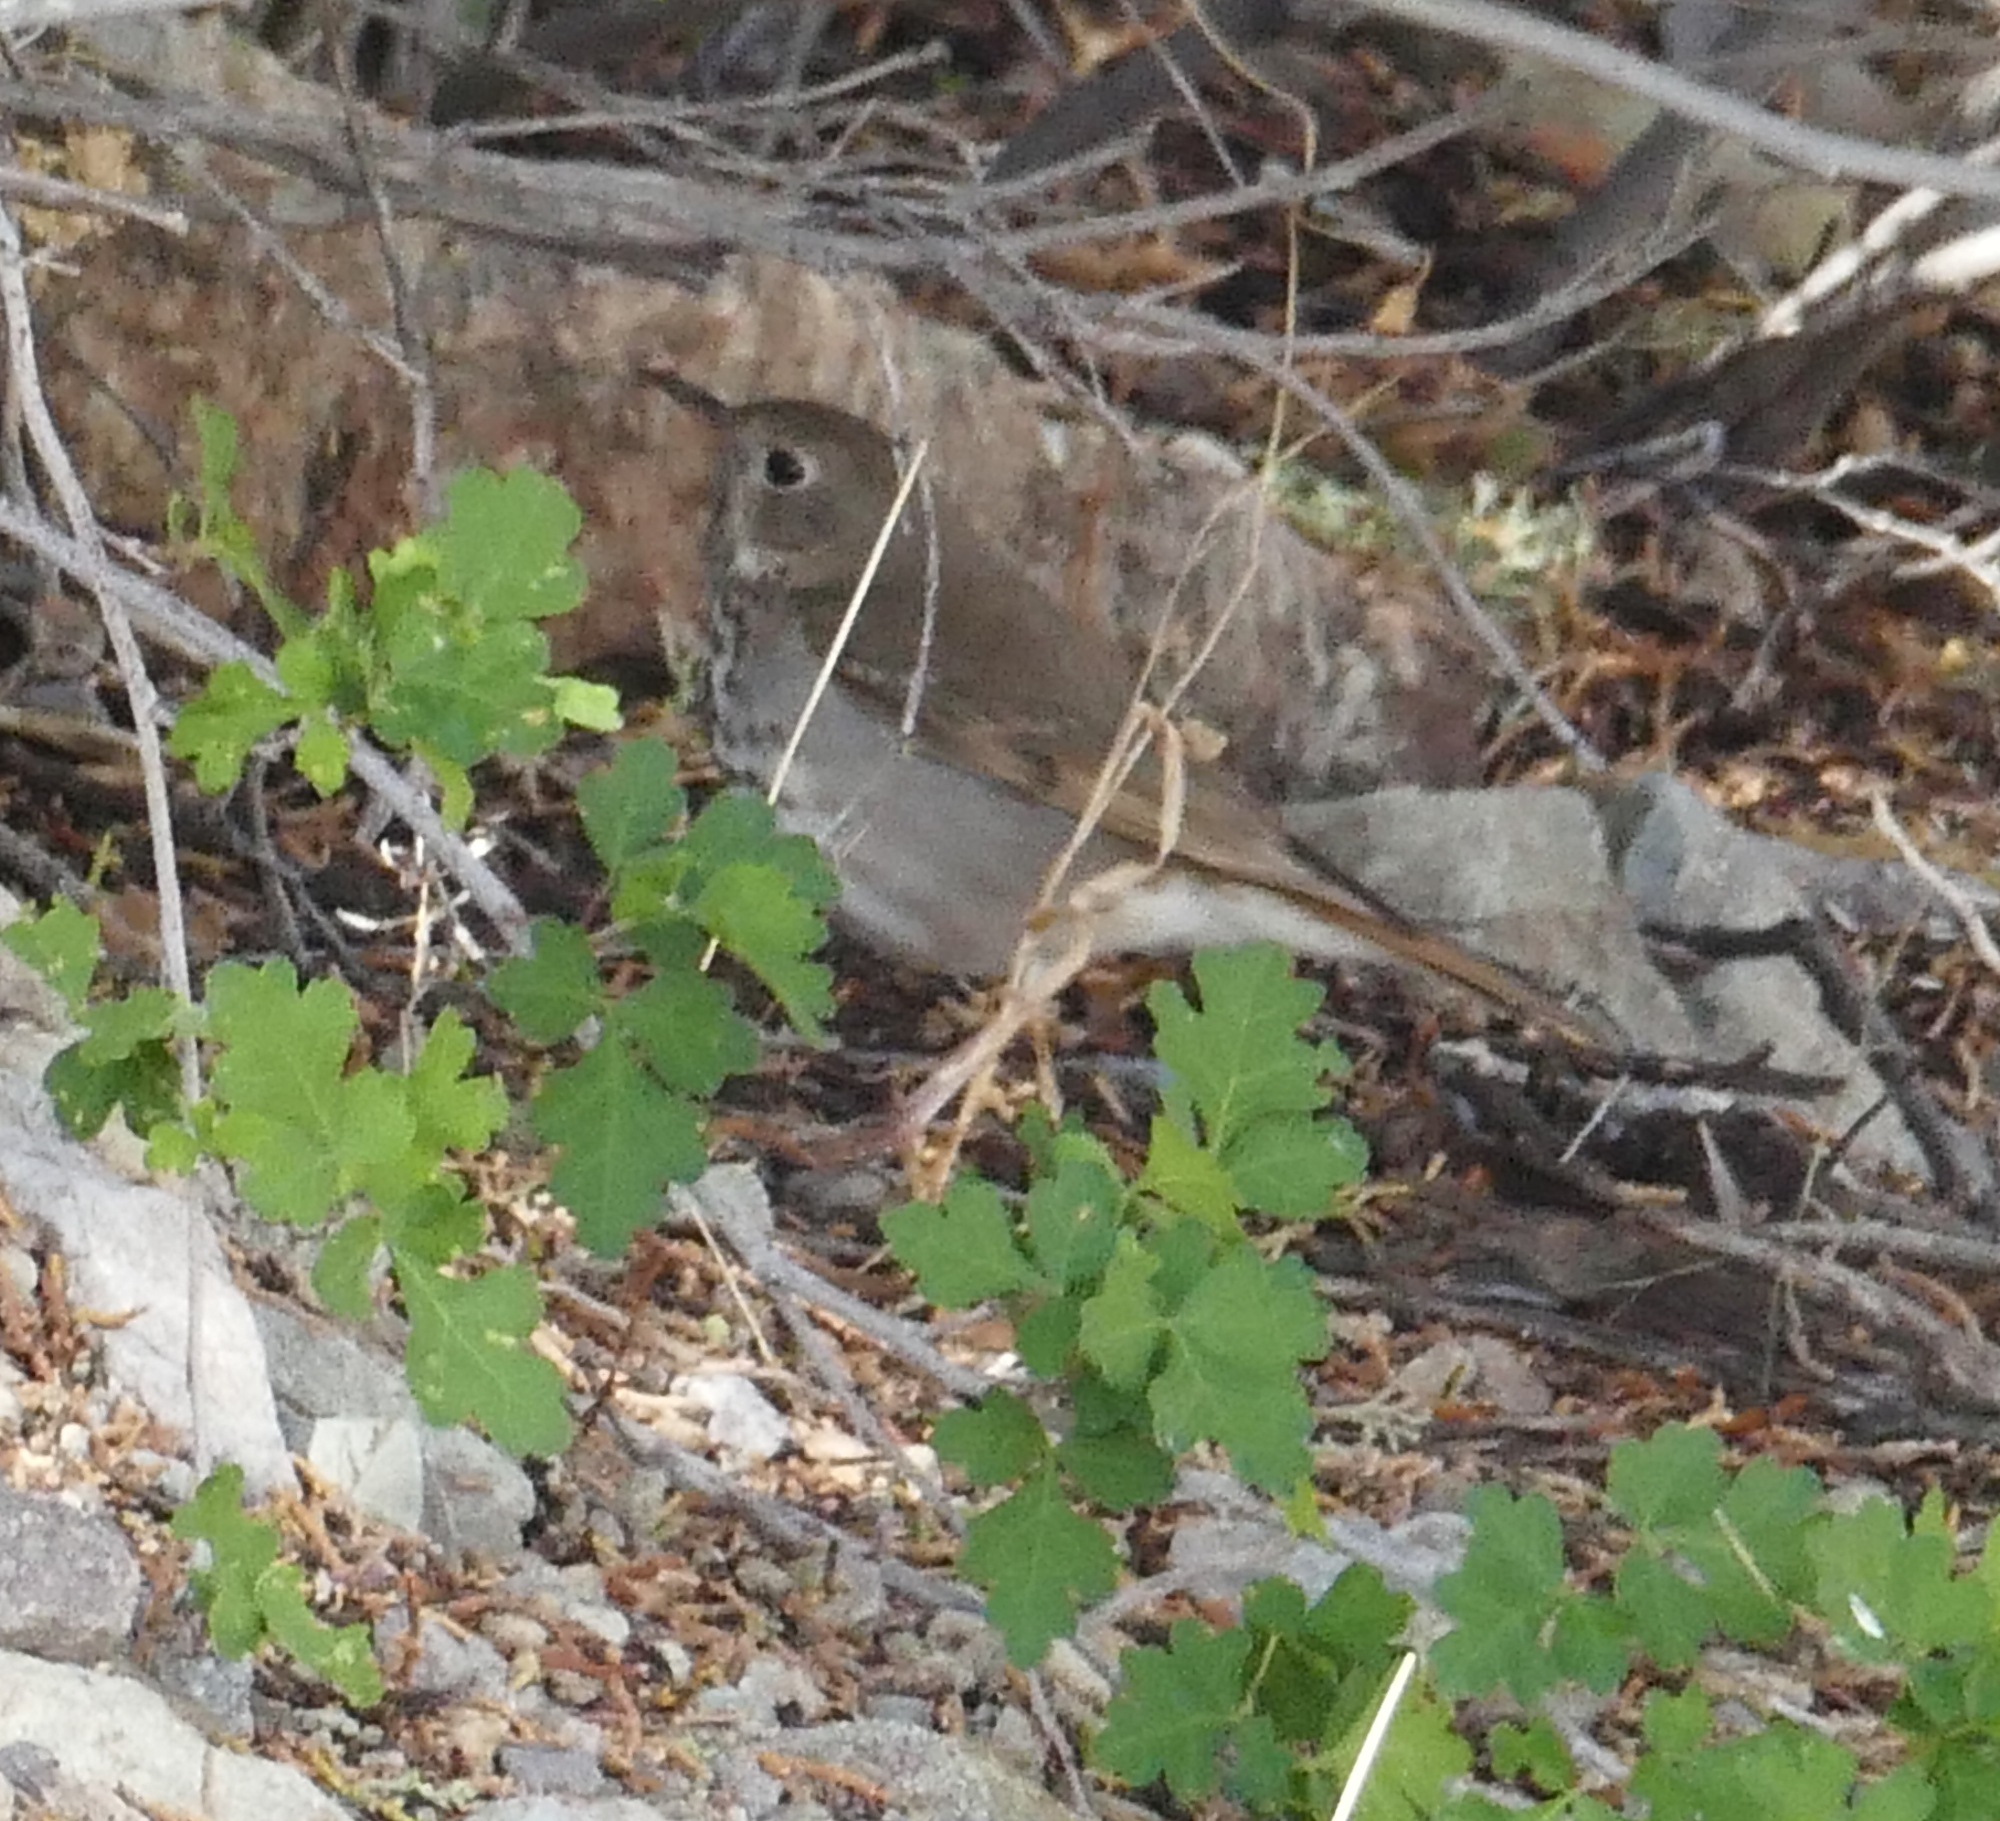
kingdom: Animalia
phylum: Chordata
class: Aves
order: Passeriformes
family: Turdidae
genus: Catharus
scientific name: Catharus guttatus
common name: Hermit thrush
